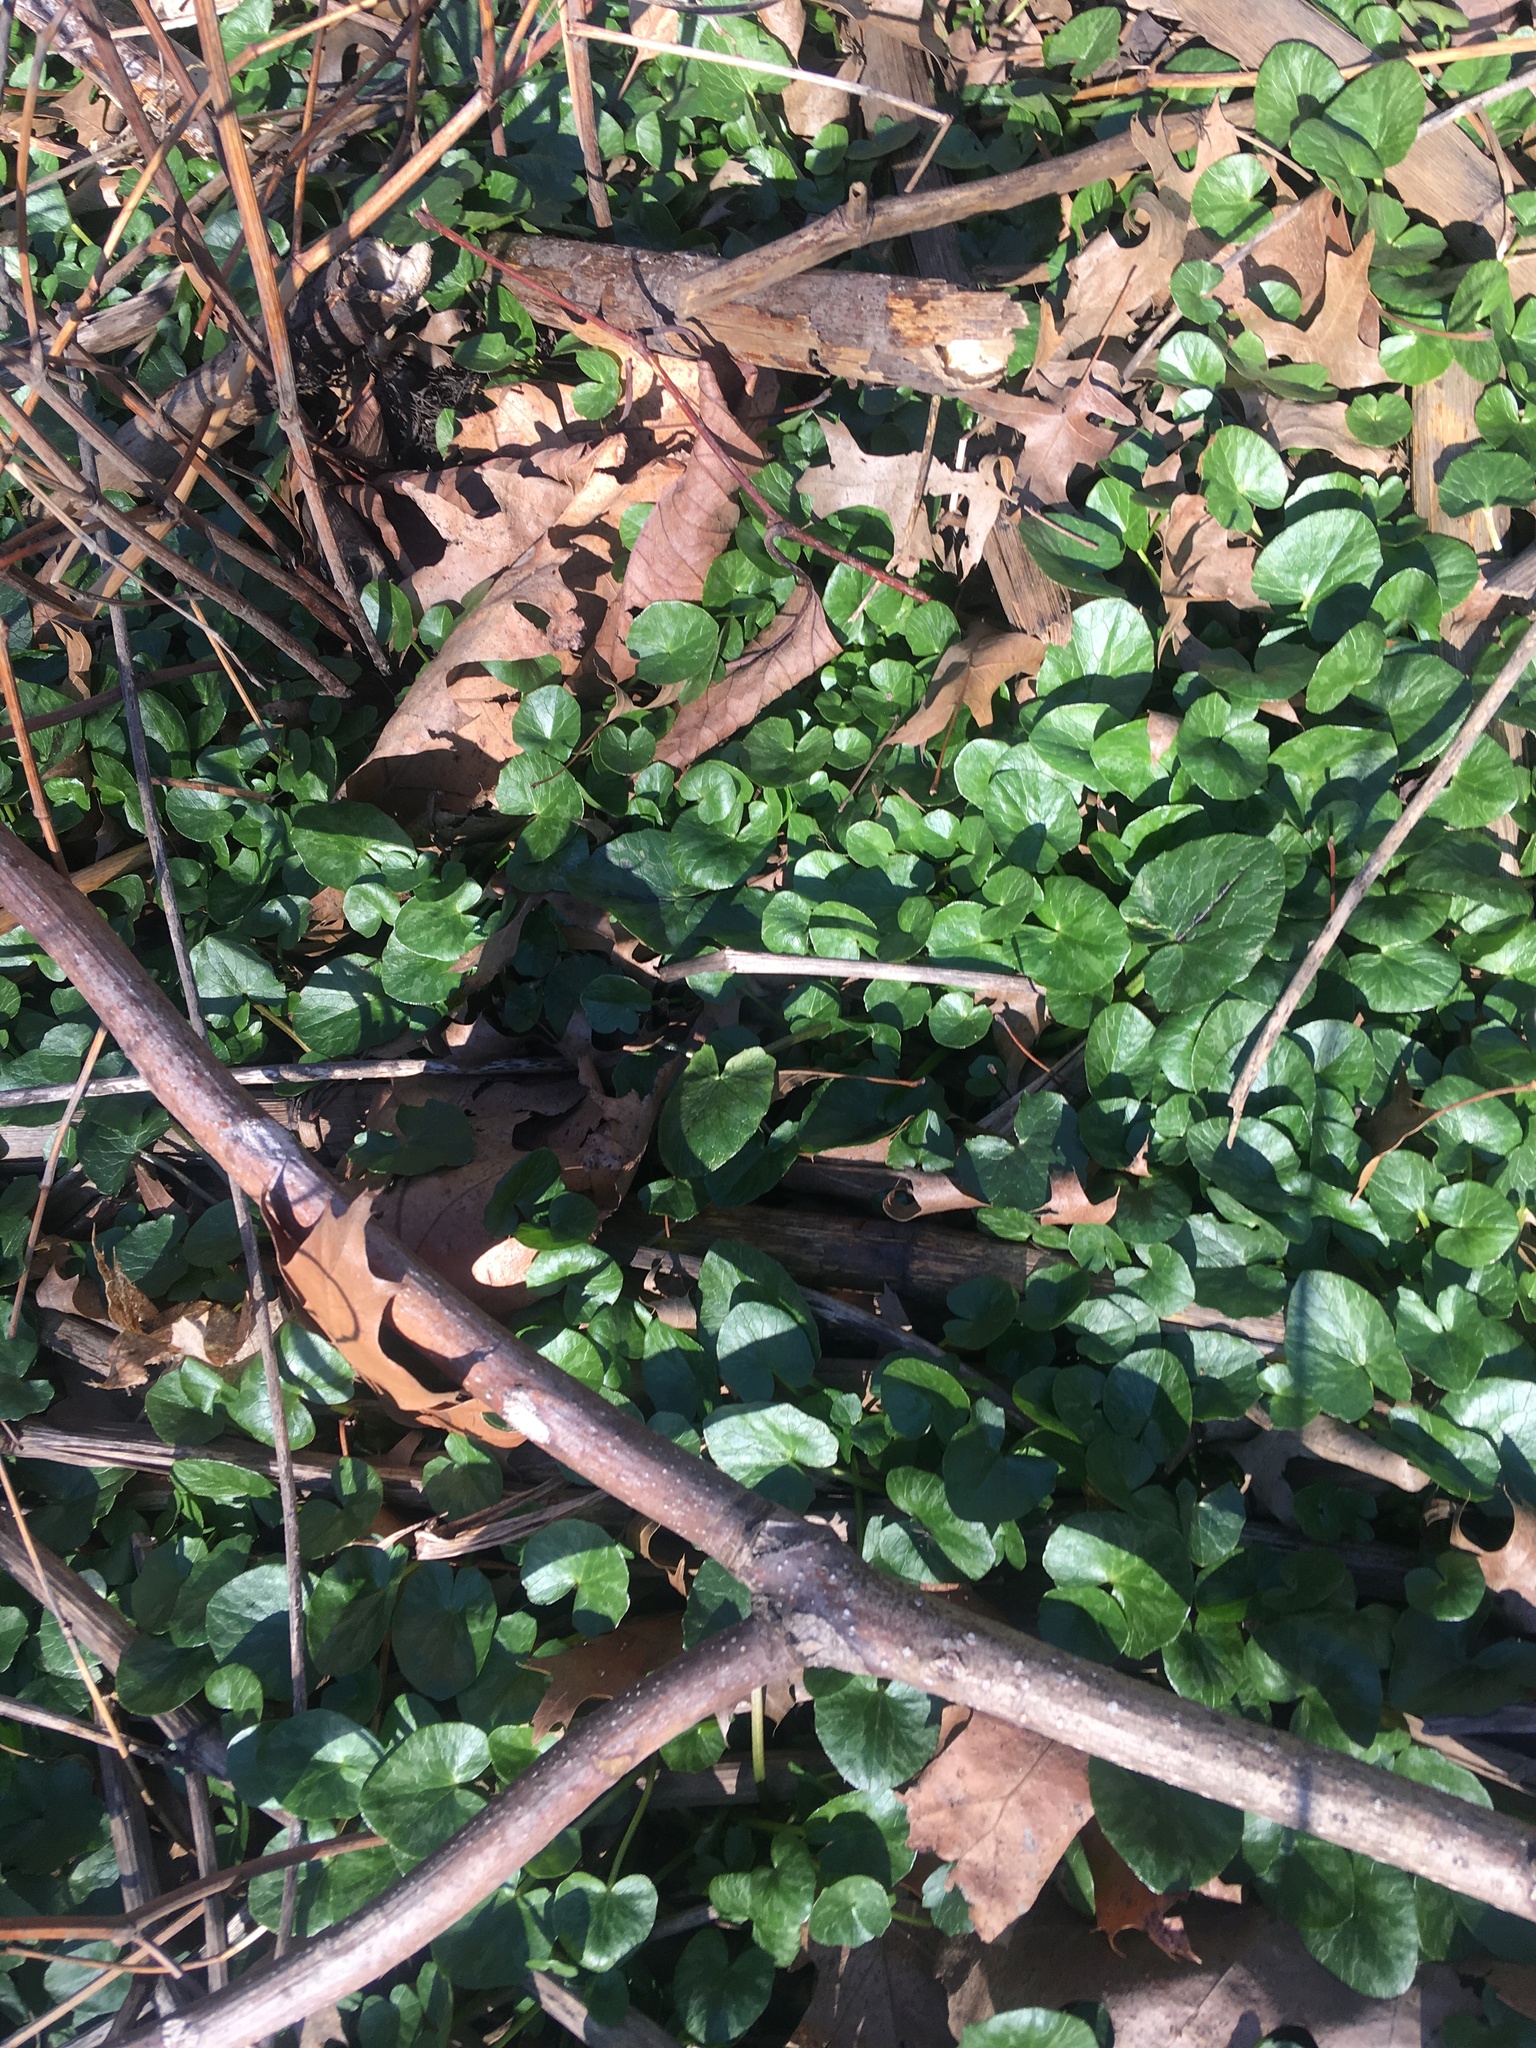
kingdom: Plantae
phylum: Tracheophyta
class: Magnoliopsida
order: Ranunculales
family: Ranunculaceae
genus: Ficaria
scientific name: Ficaria verna
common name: Lesser celandine
